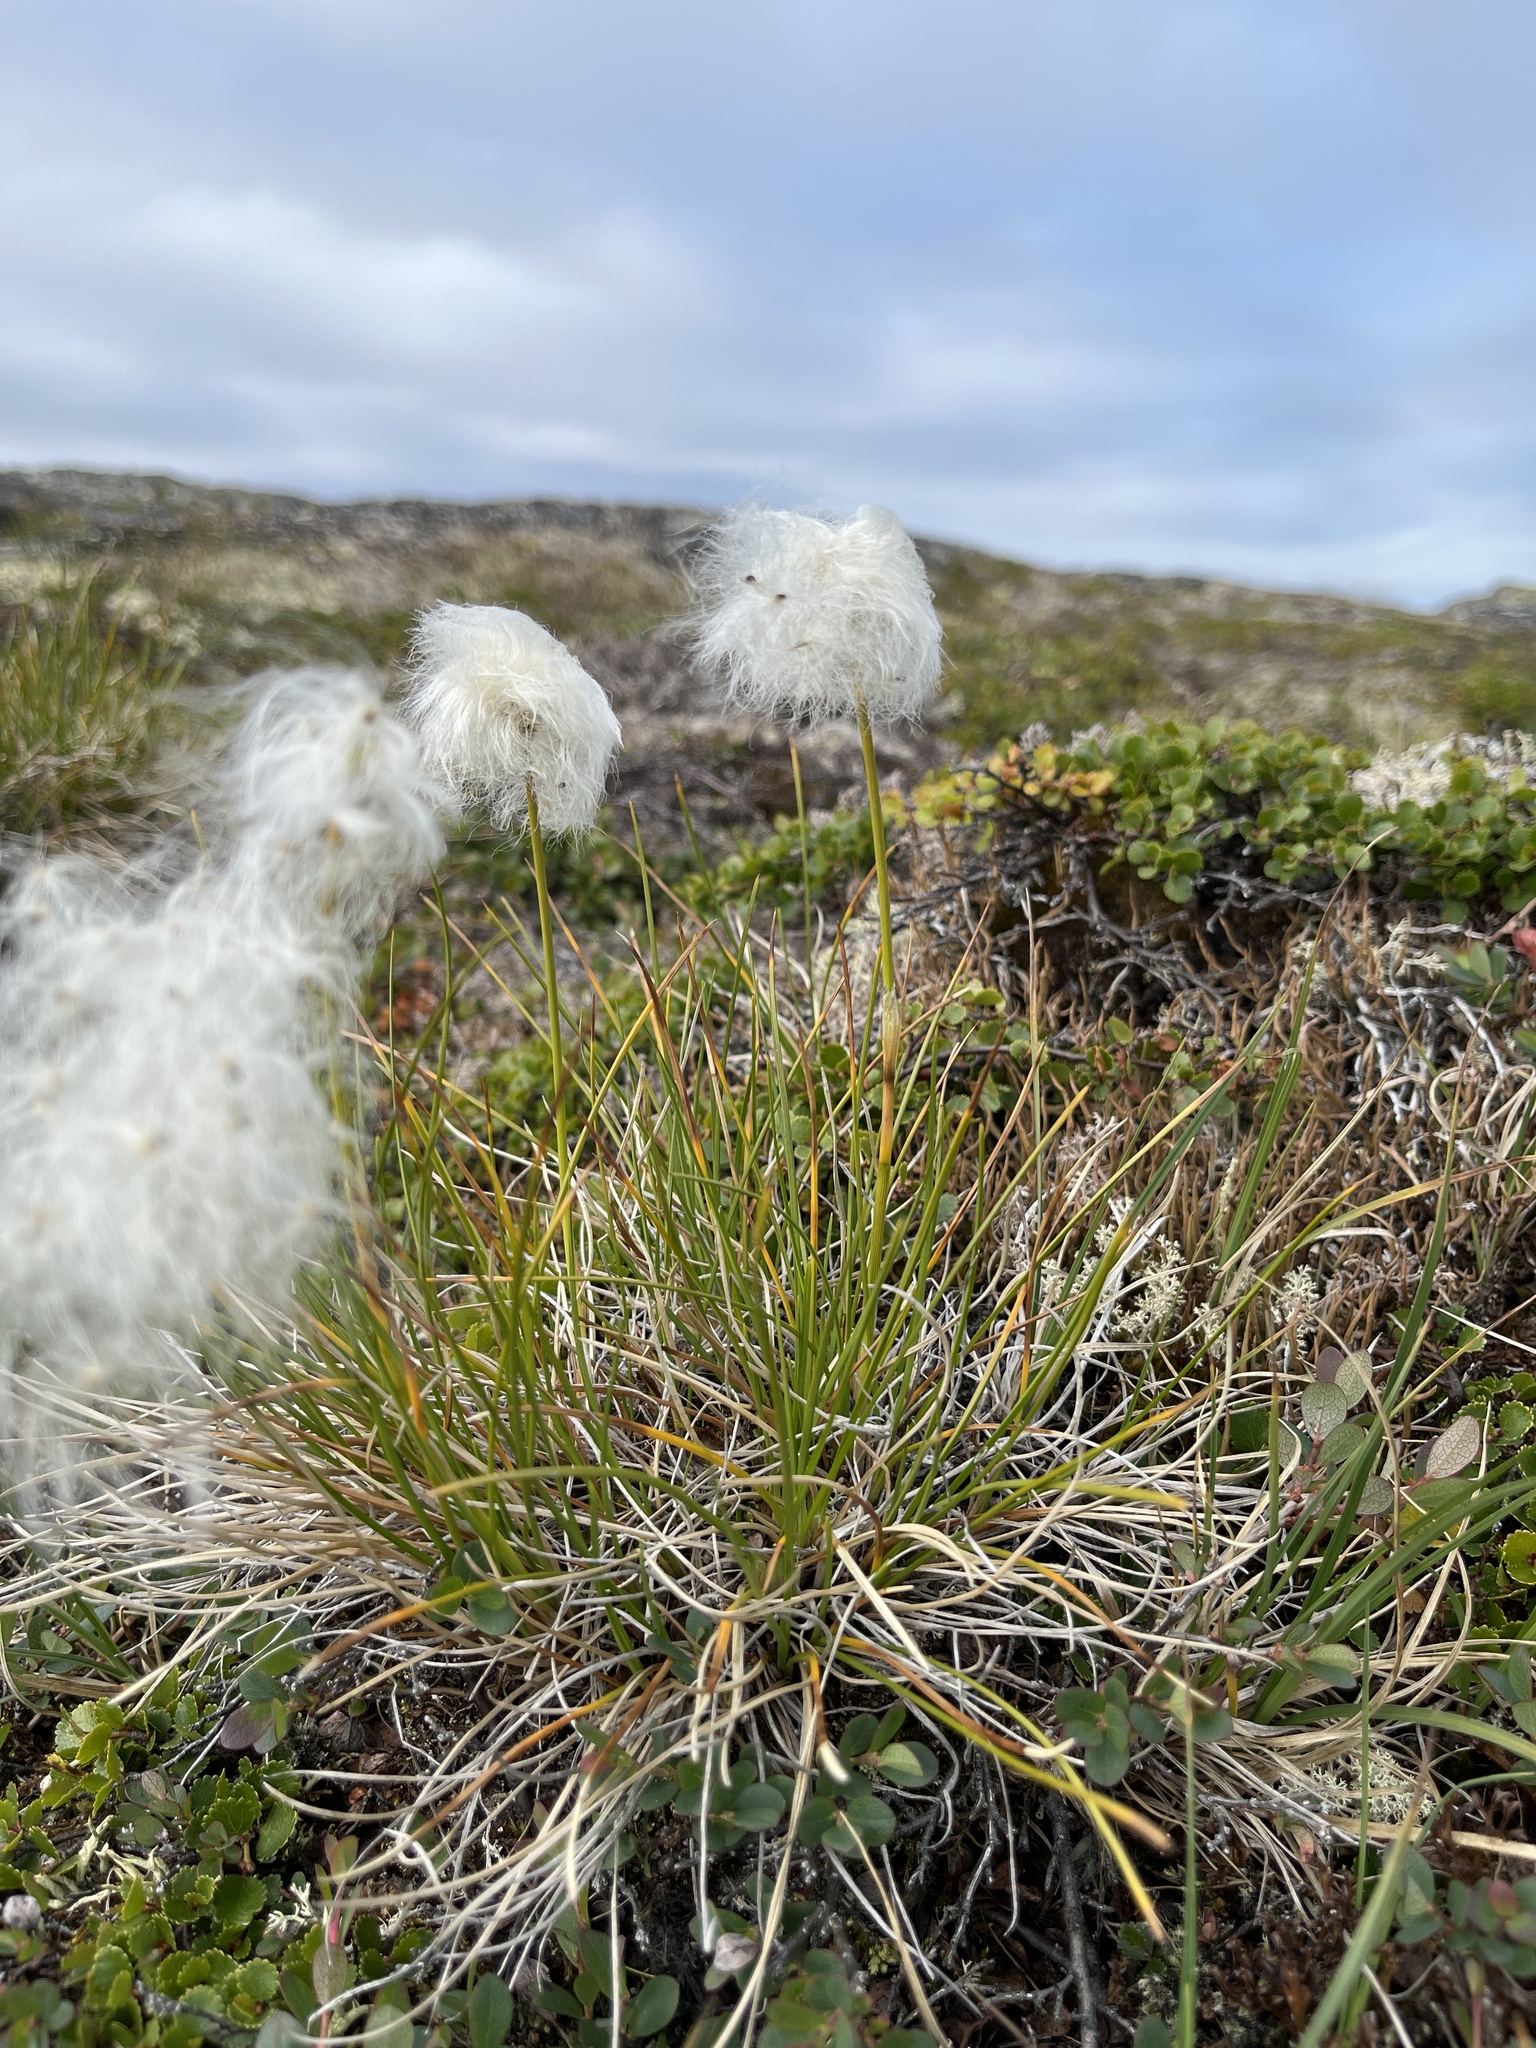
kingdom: Plantae
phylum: Tracheophyta
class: Liliopsida
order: Poales
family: Cyperaceae
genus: Eriophorum
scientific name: Eriophorum vaginatum
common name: Hare's-tail cottongrass
